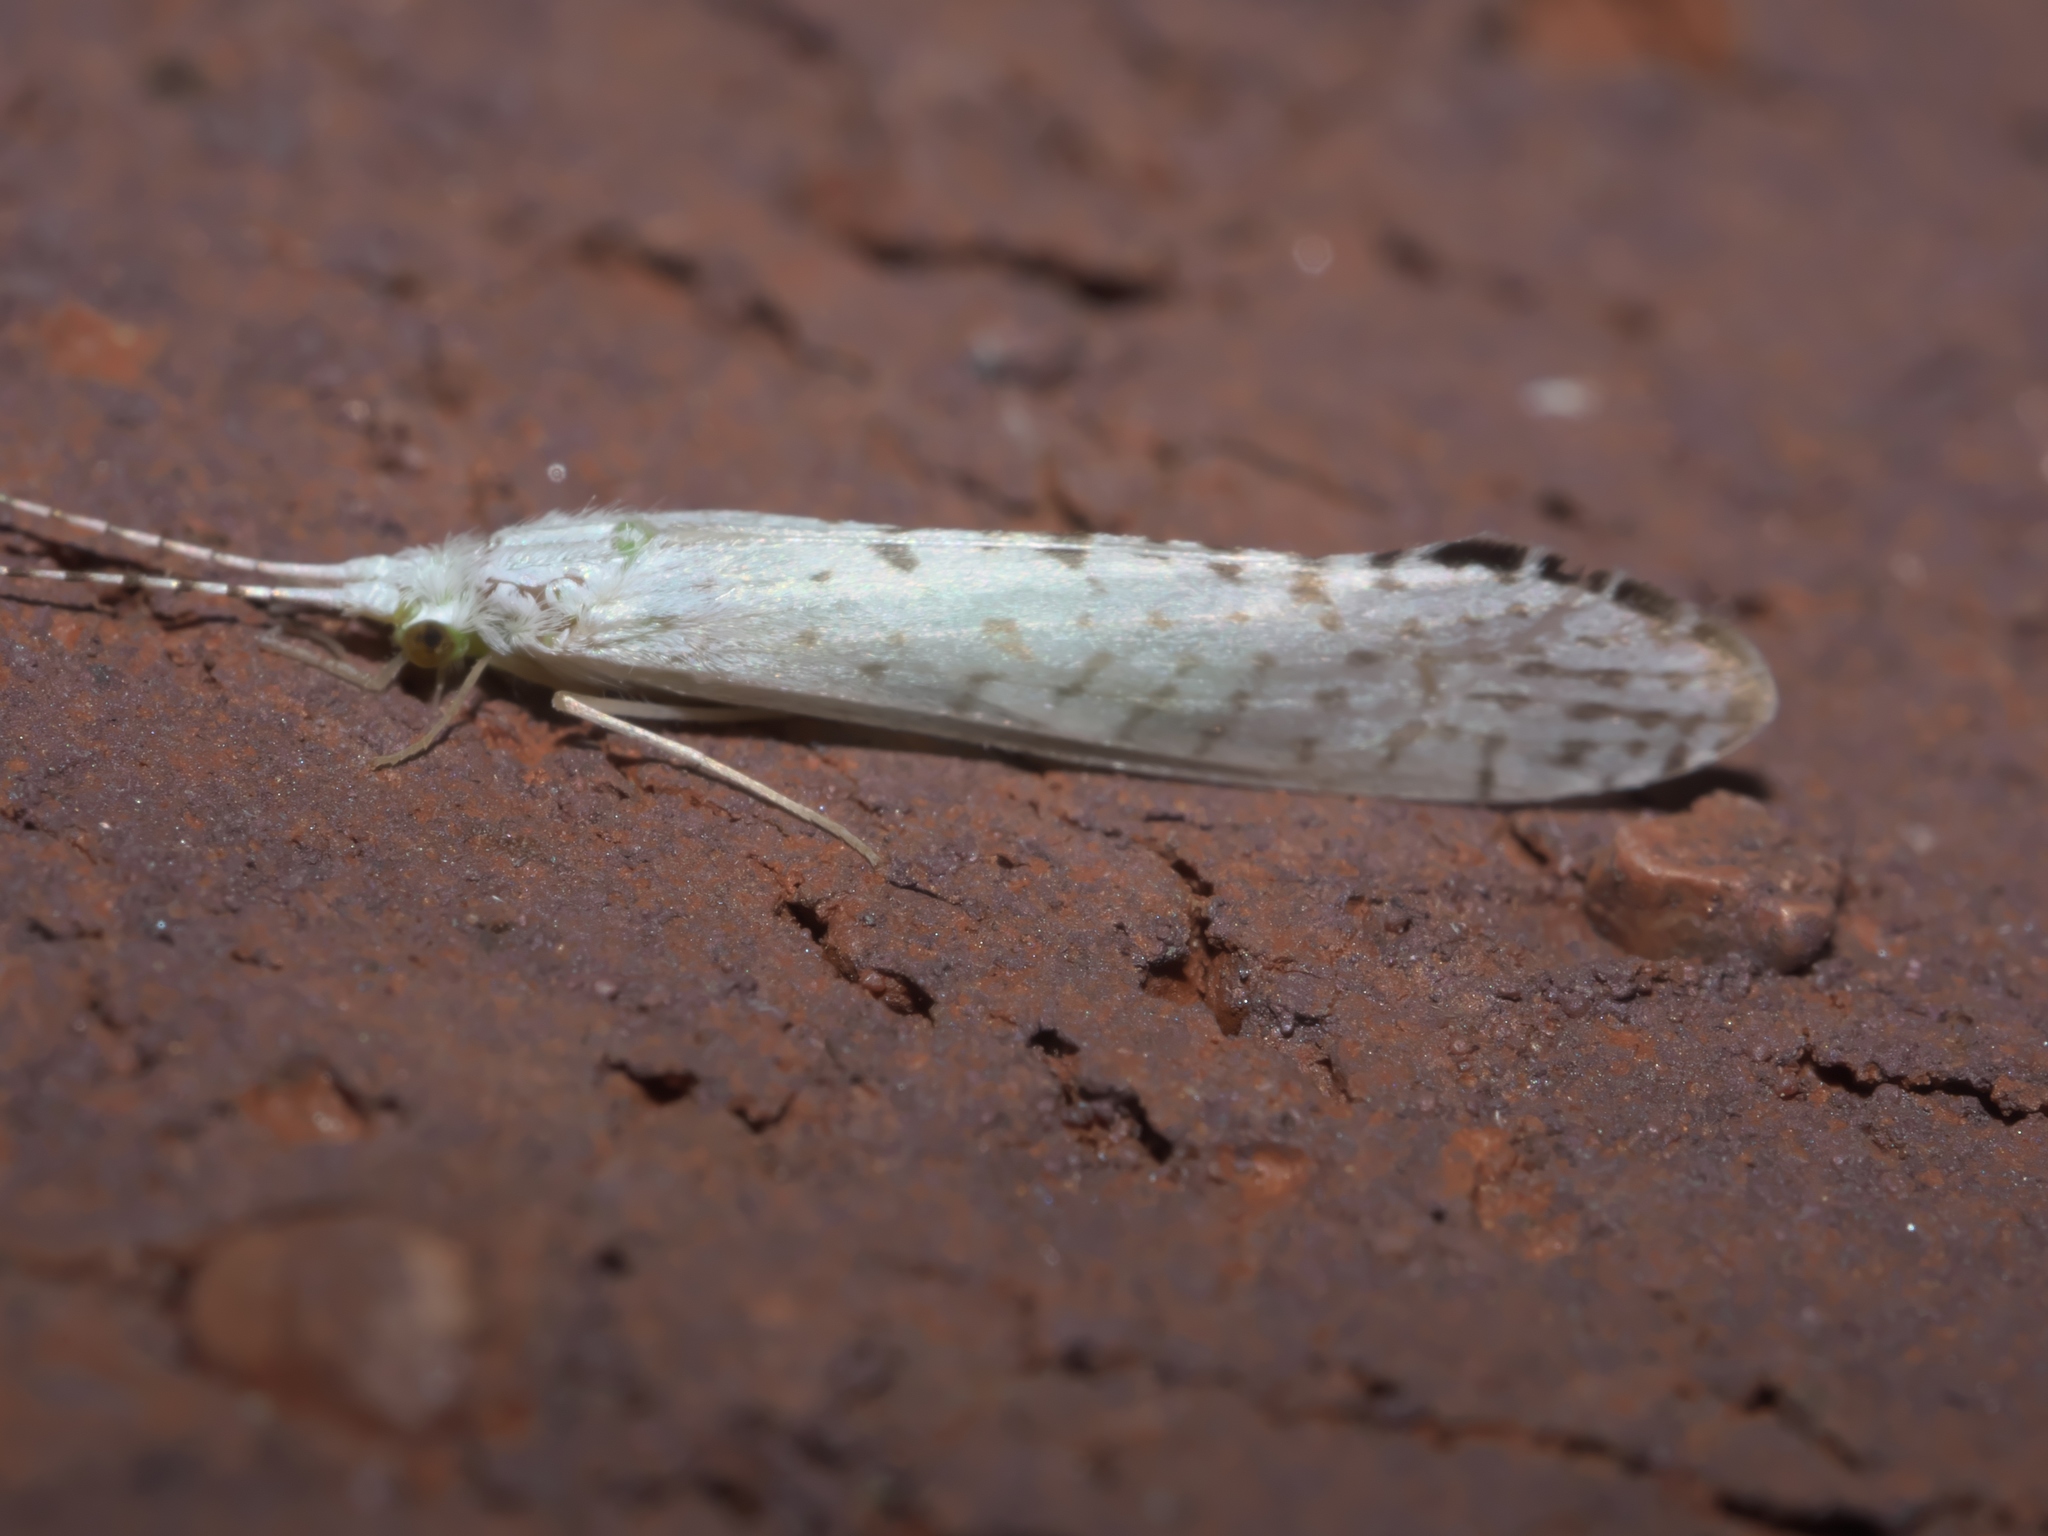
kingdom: Animalia
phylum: Arthropoda
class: Insecta
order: Trichoptera
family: Leptoceridae
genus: Nectopsyche
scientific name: Nectopsyche candida
